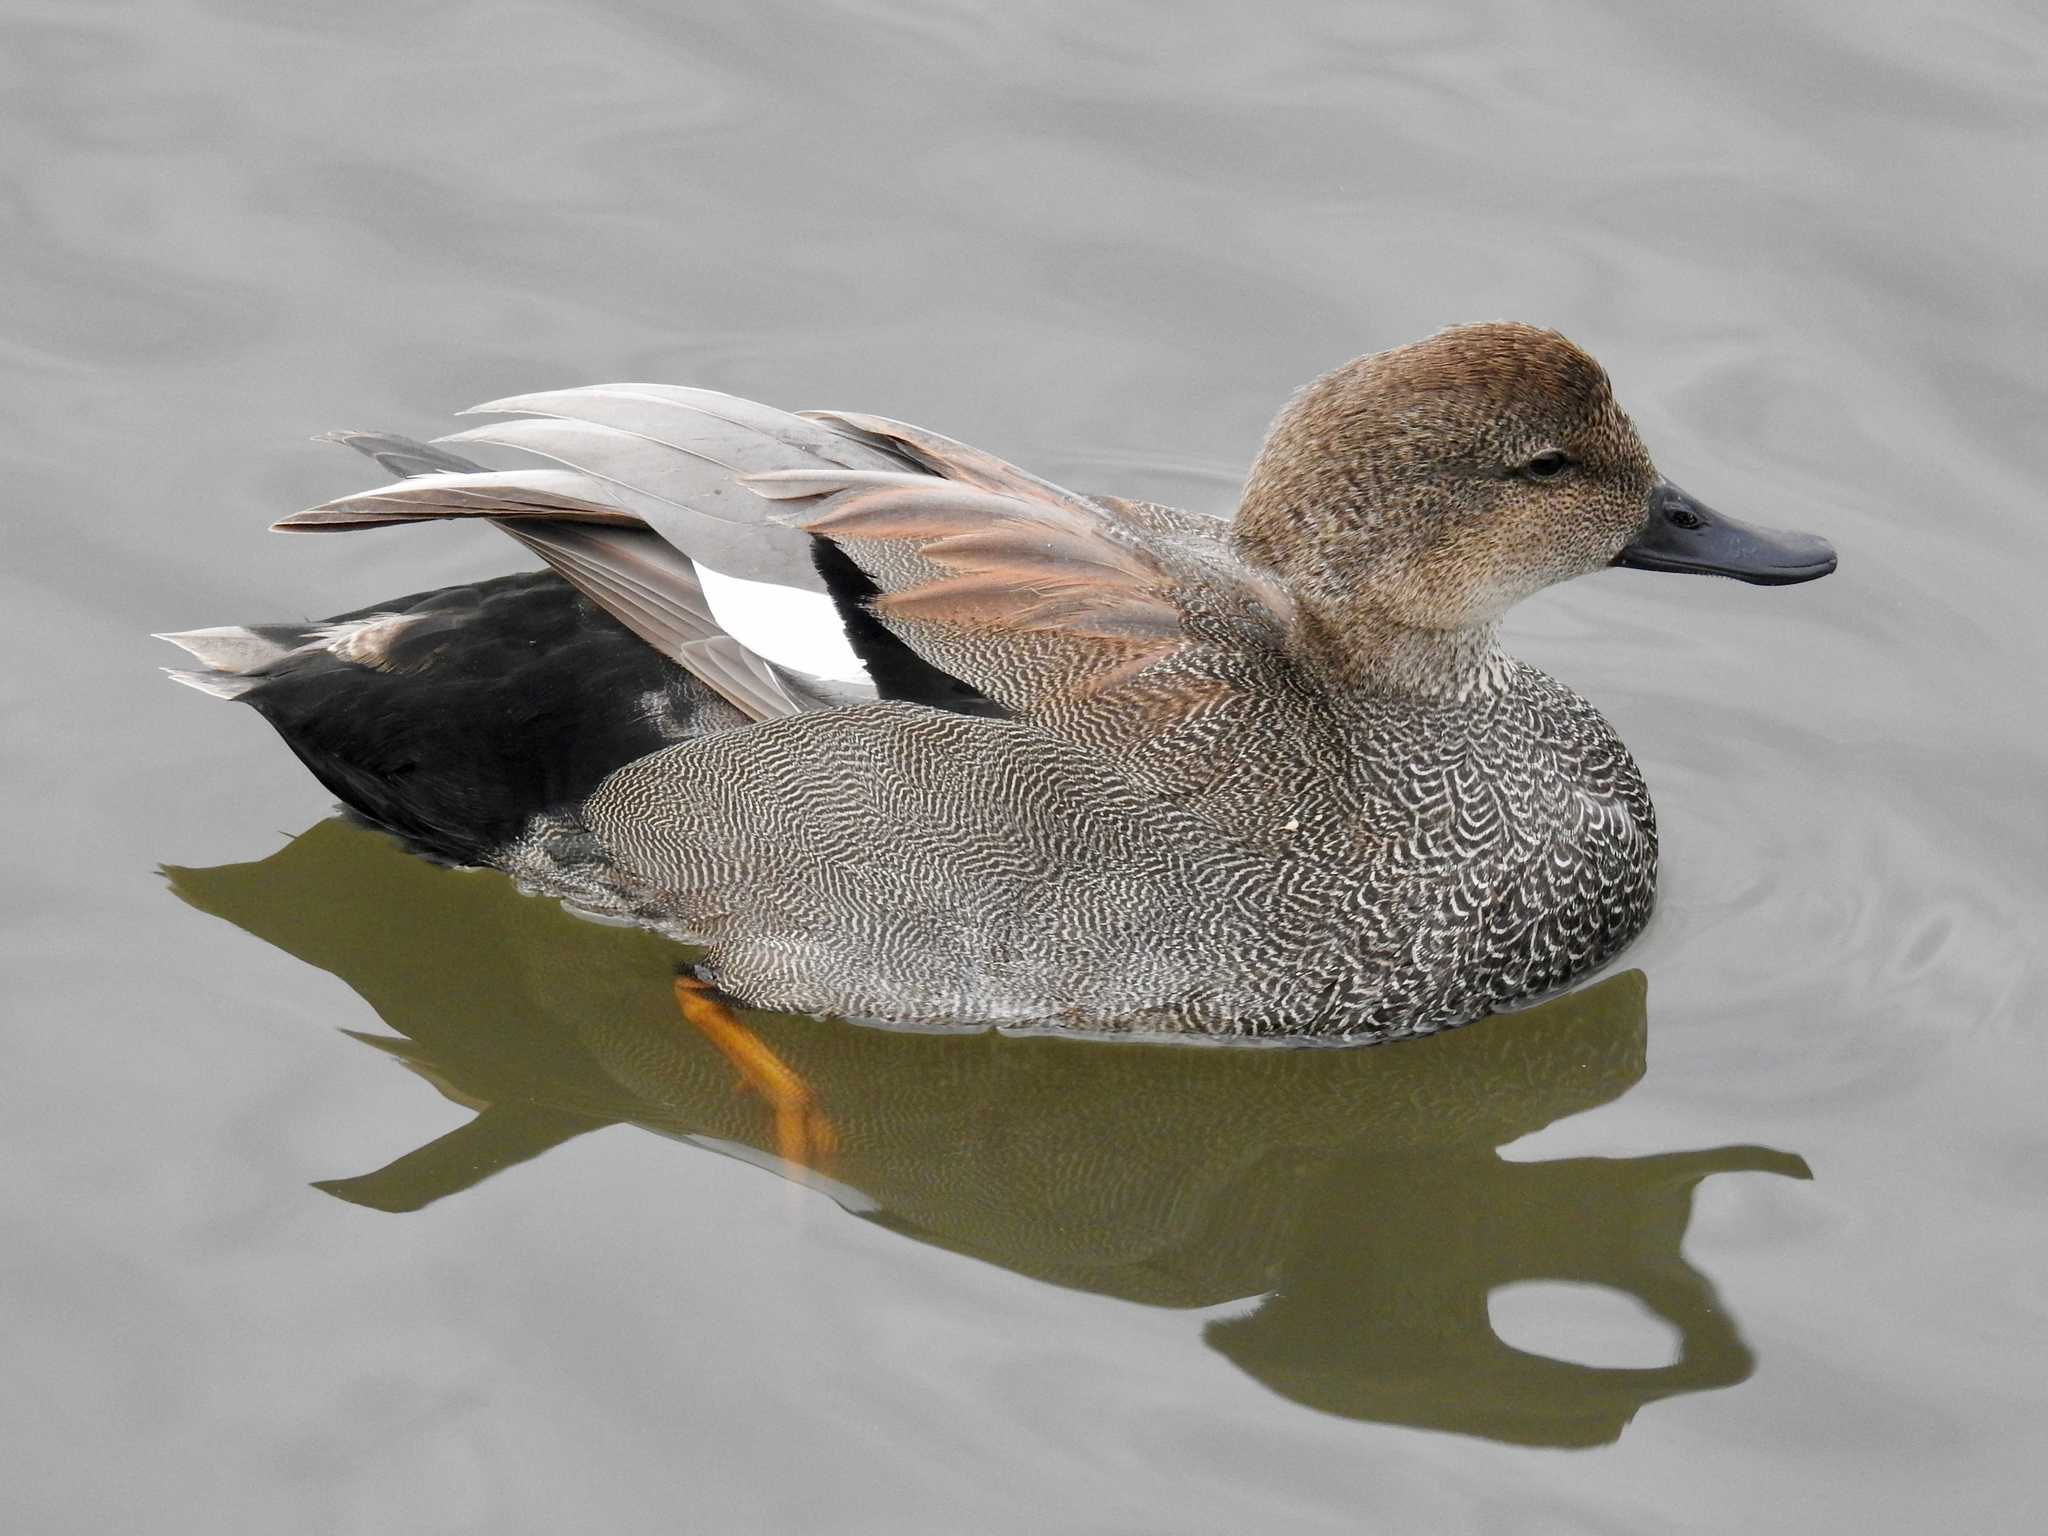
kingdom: Animalia
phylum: Chordata
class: Aves
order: Anseriformes
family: Anatidae
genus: Mareca
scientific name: Mareca strepera
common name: Gadwall
